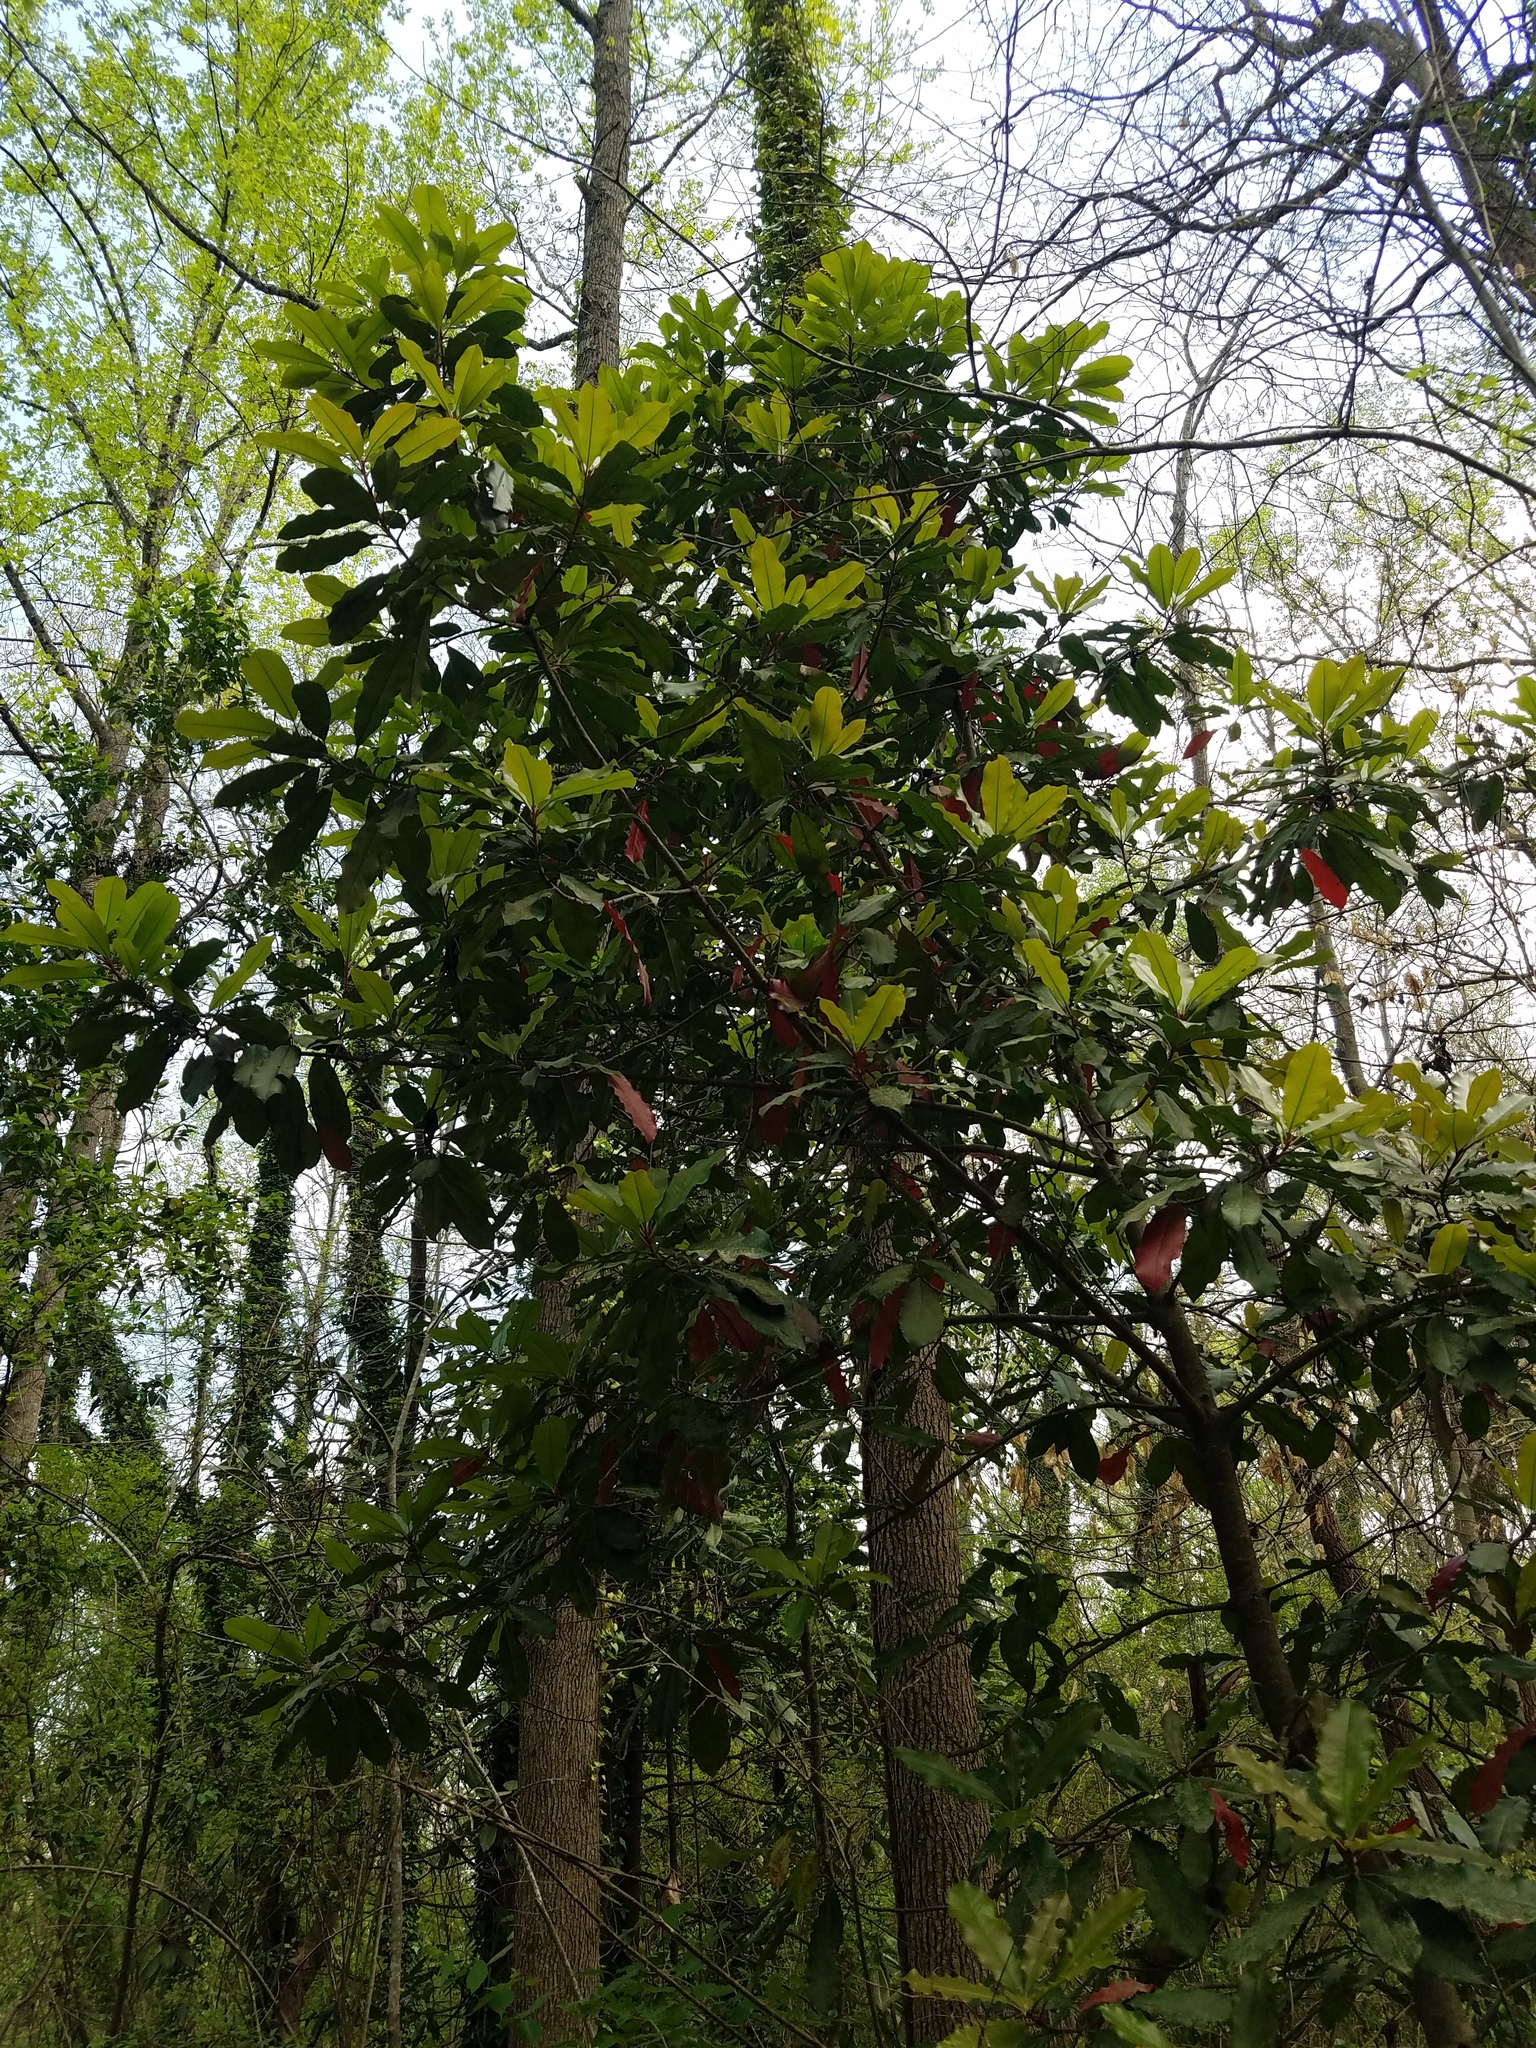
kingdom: Plantae
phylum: Tracheophyta
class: Magnoliopsida
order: Rosales
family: Rosaceae
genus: Photinia
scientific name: Photinia serratifolia
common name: Taiwanese photinia
